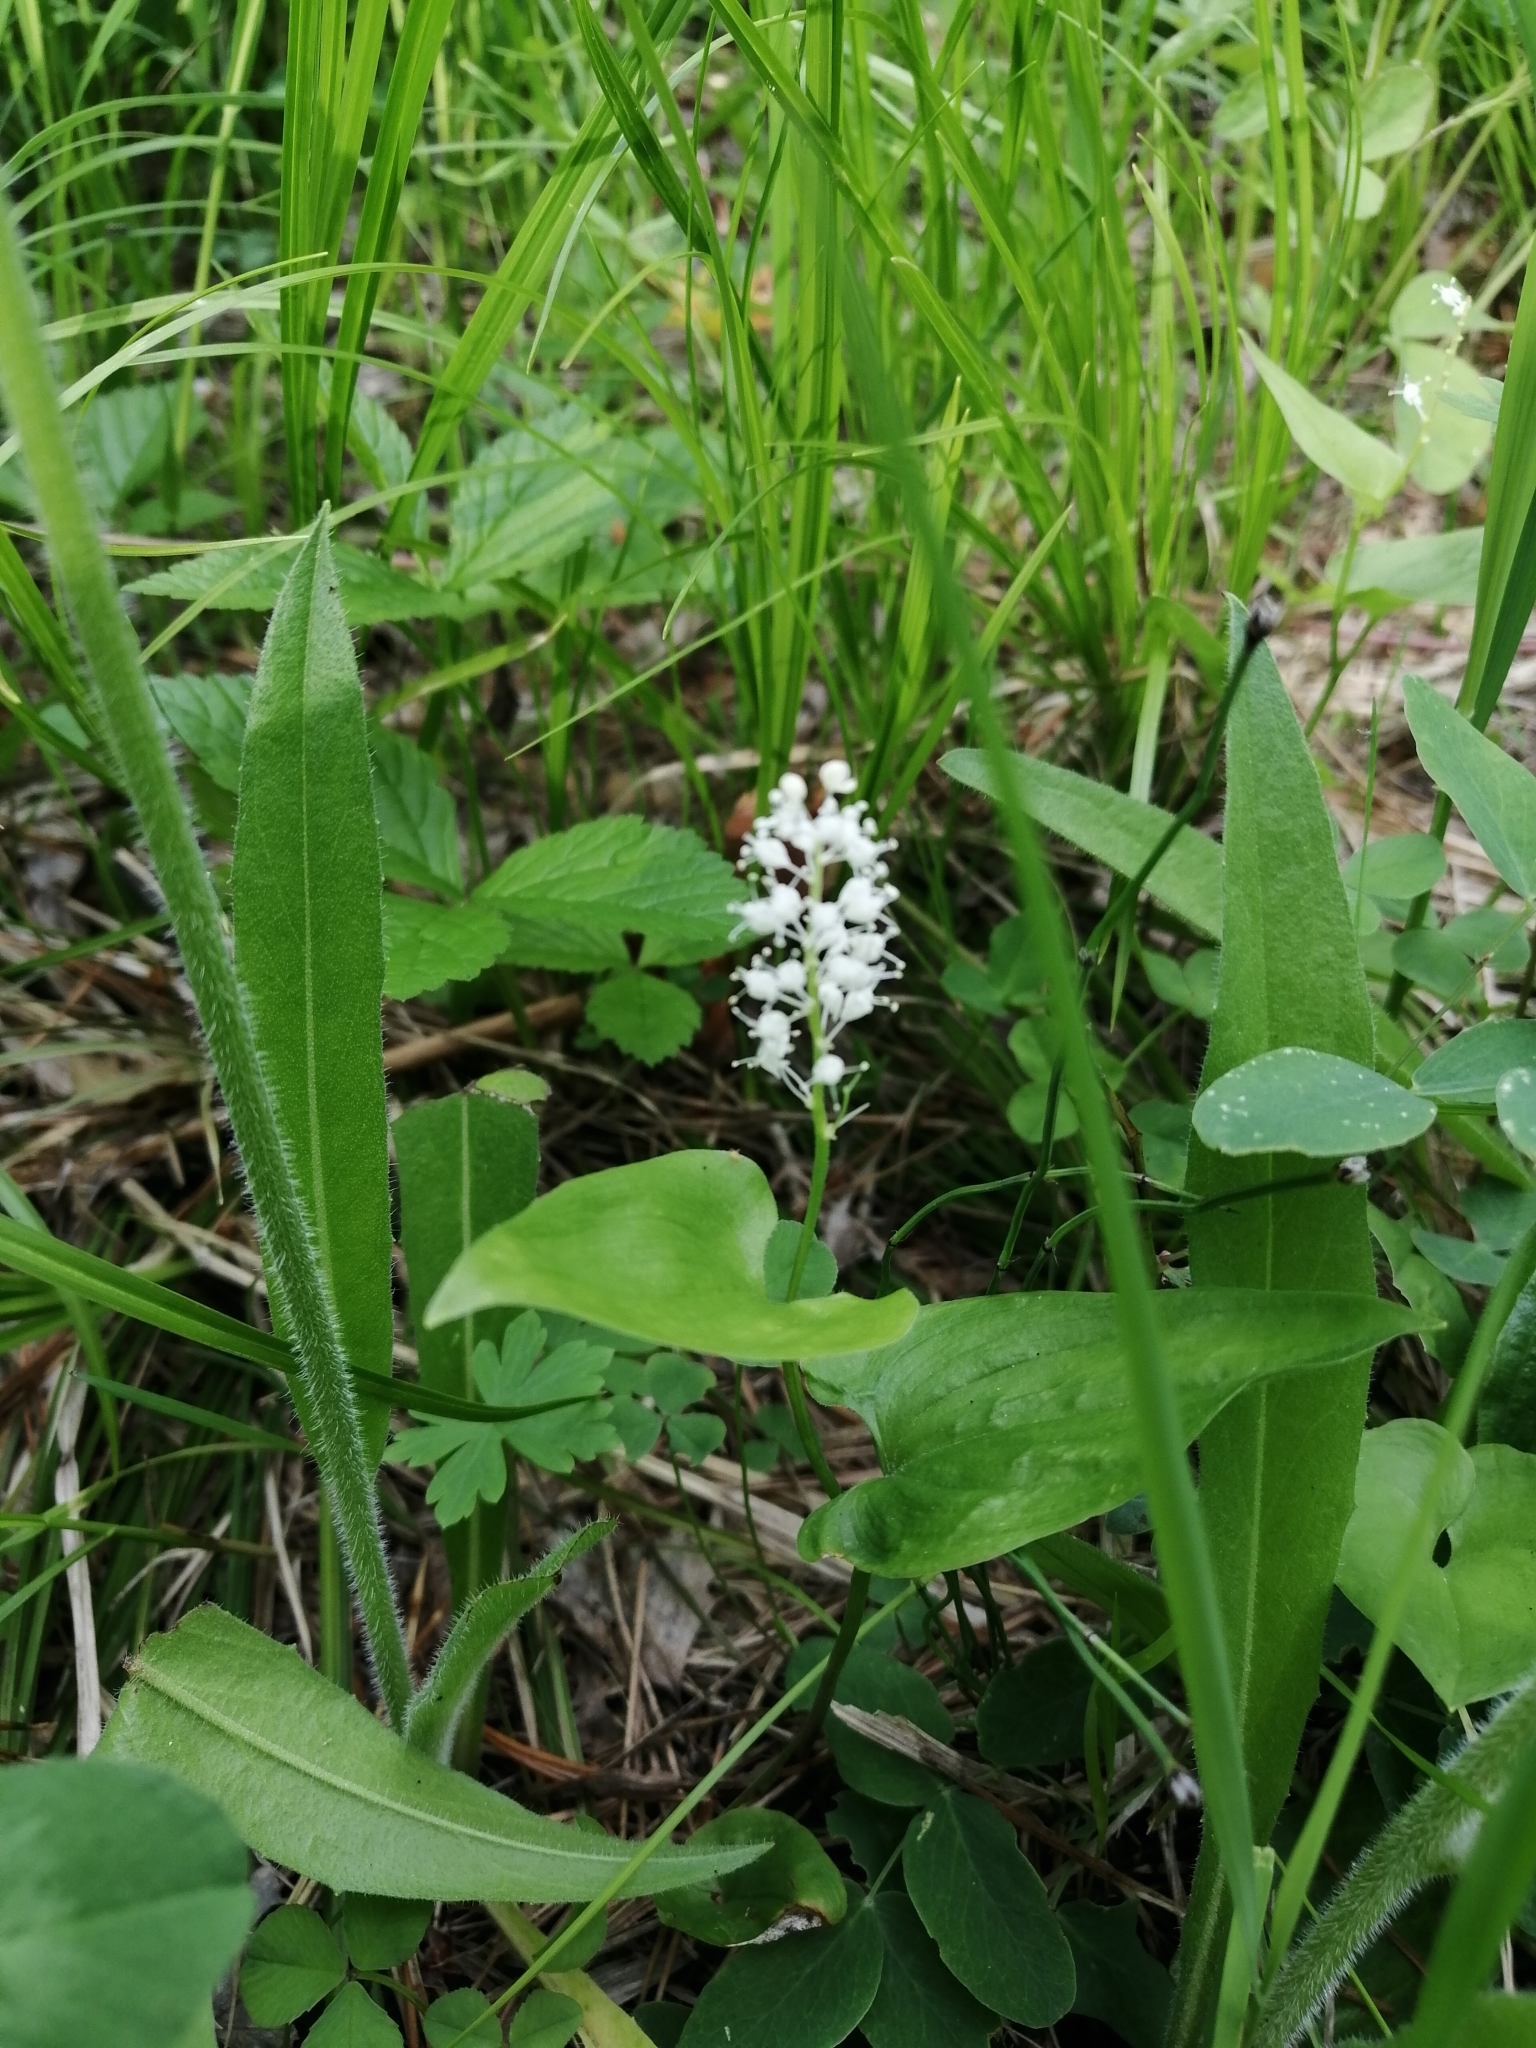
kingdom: Plantae
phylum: Tracheophyta
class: Liliopsida
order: Asparagales
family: Asparagaceae
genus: Maianthemum
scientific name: Maianthemum bifolium
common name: May lily
